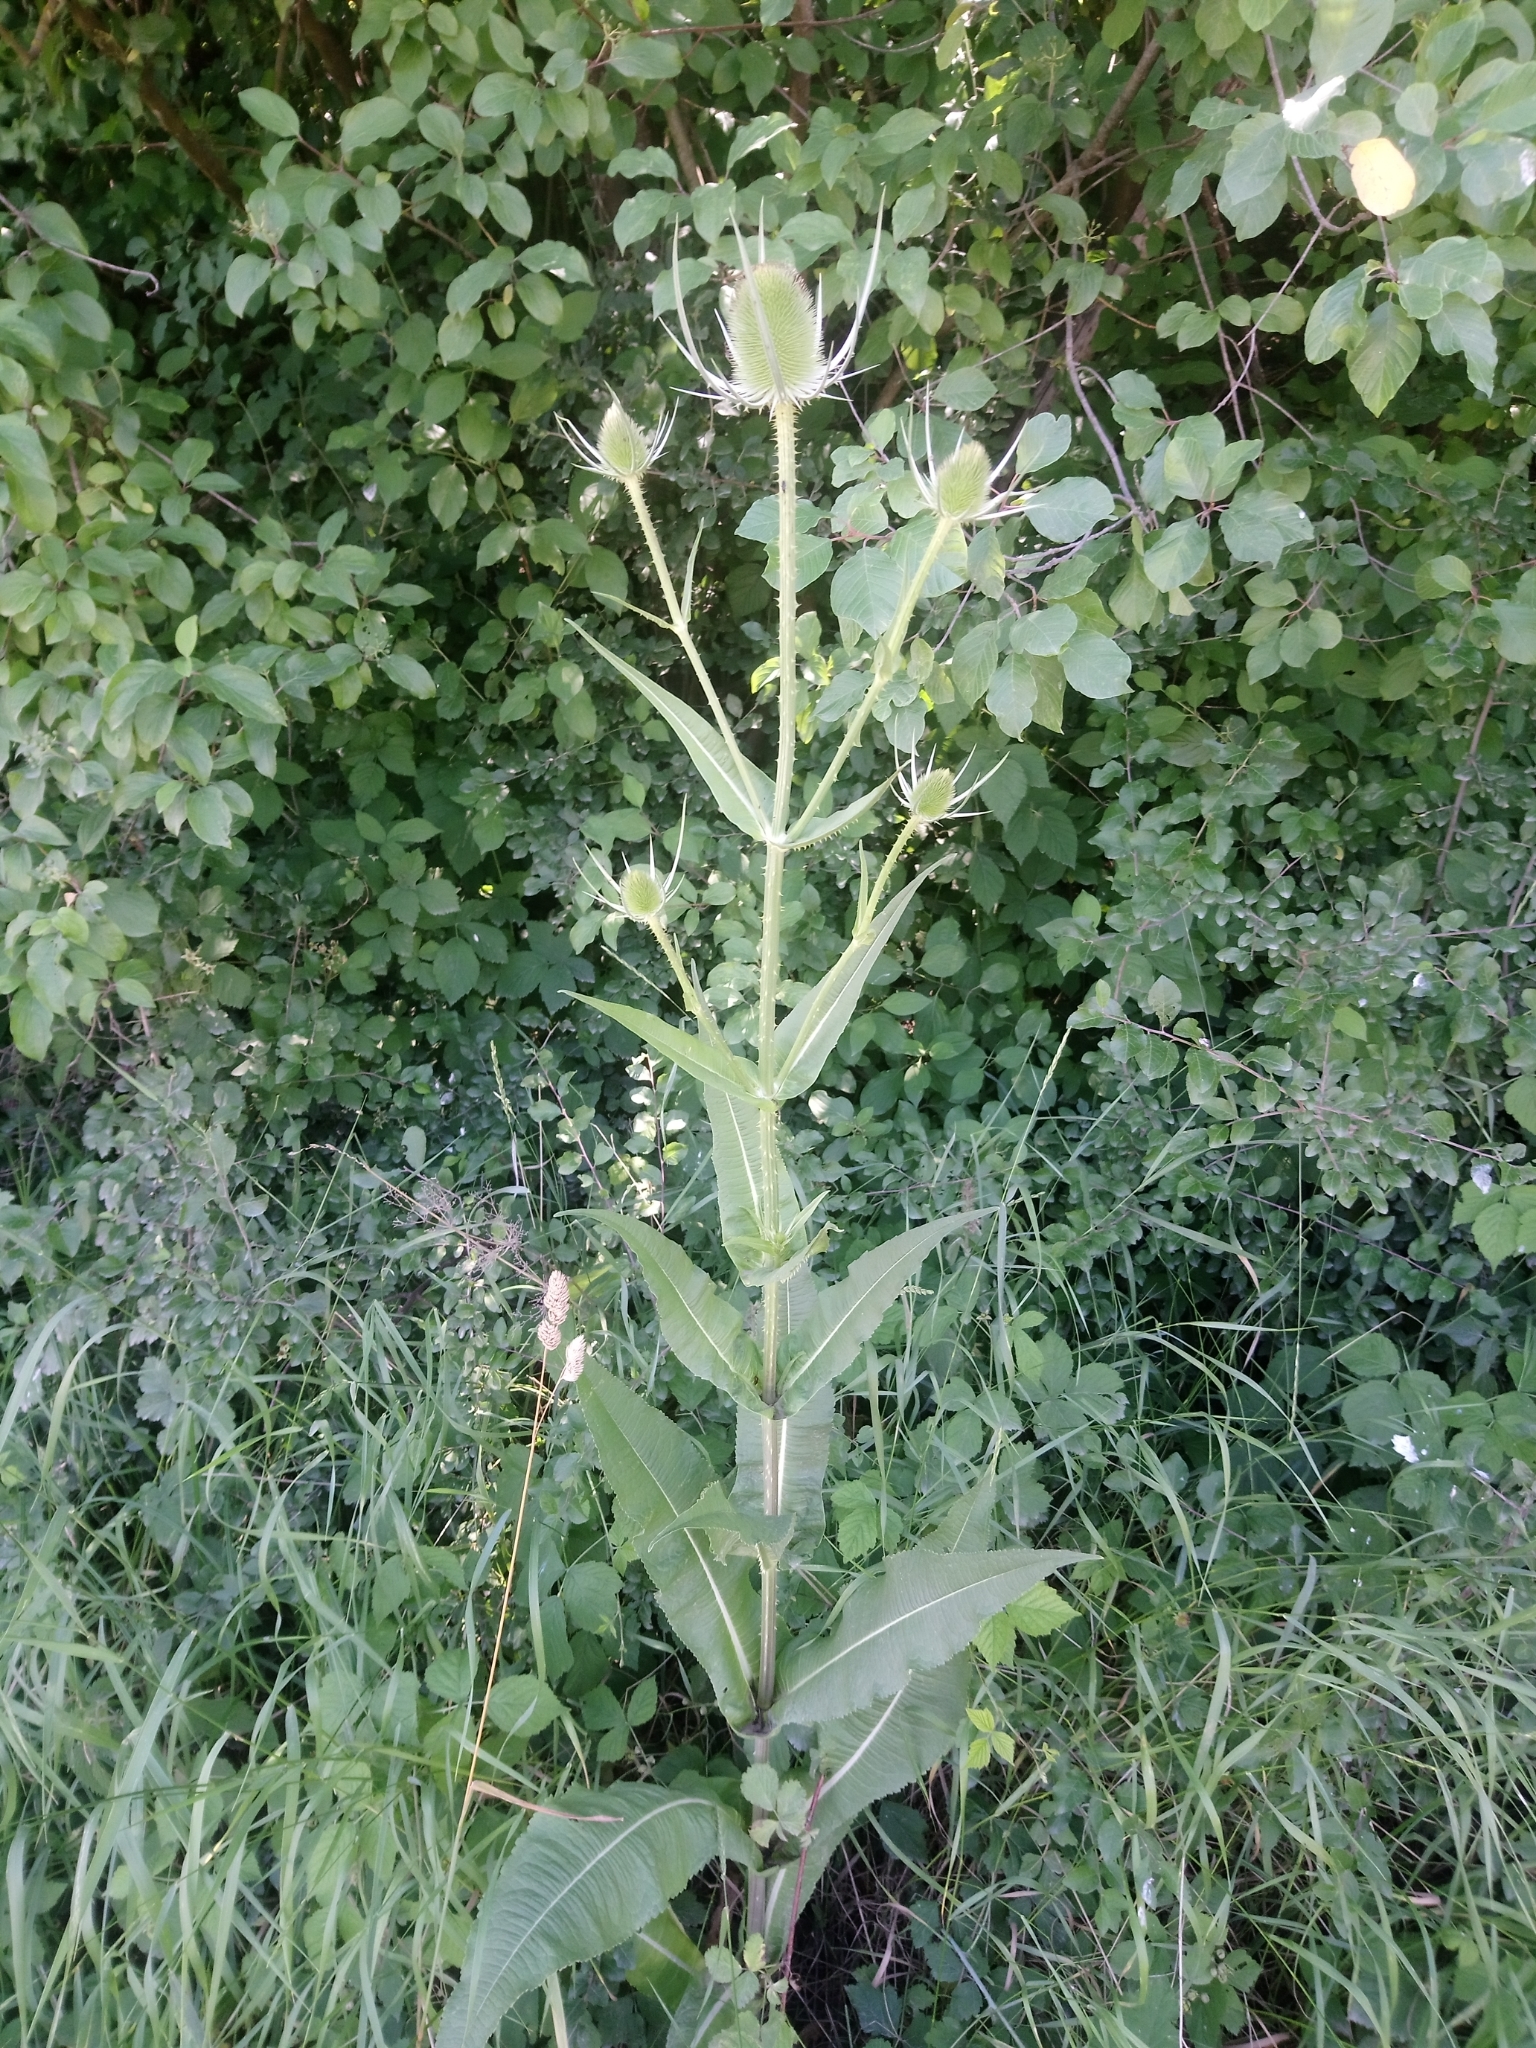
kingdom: Plantae
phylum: Tracheophyta
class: Magnoliopsida
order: Dipsacales
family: Caprifoliaceae
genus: Dipsacus
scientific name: Dipsacus fullonum
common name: Teasel
